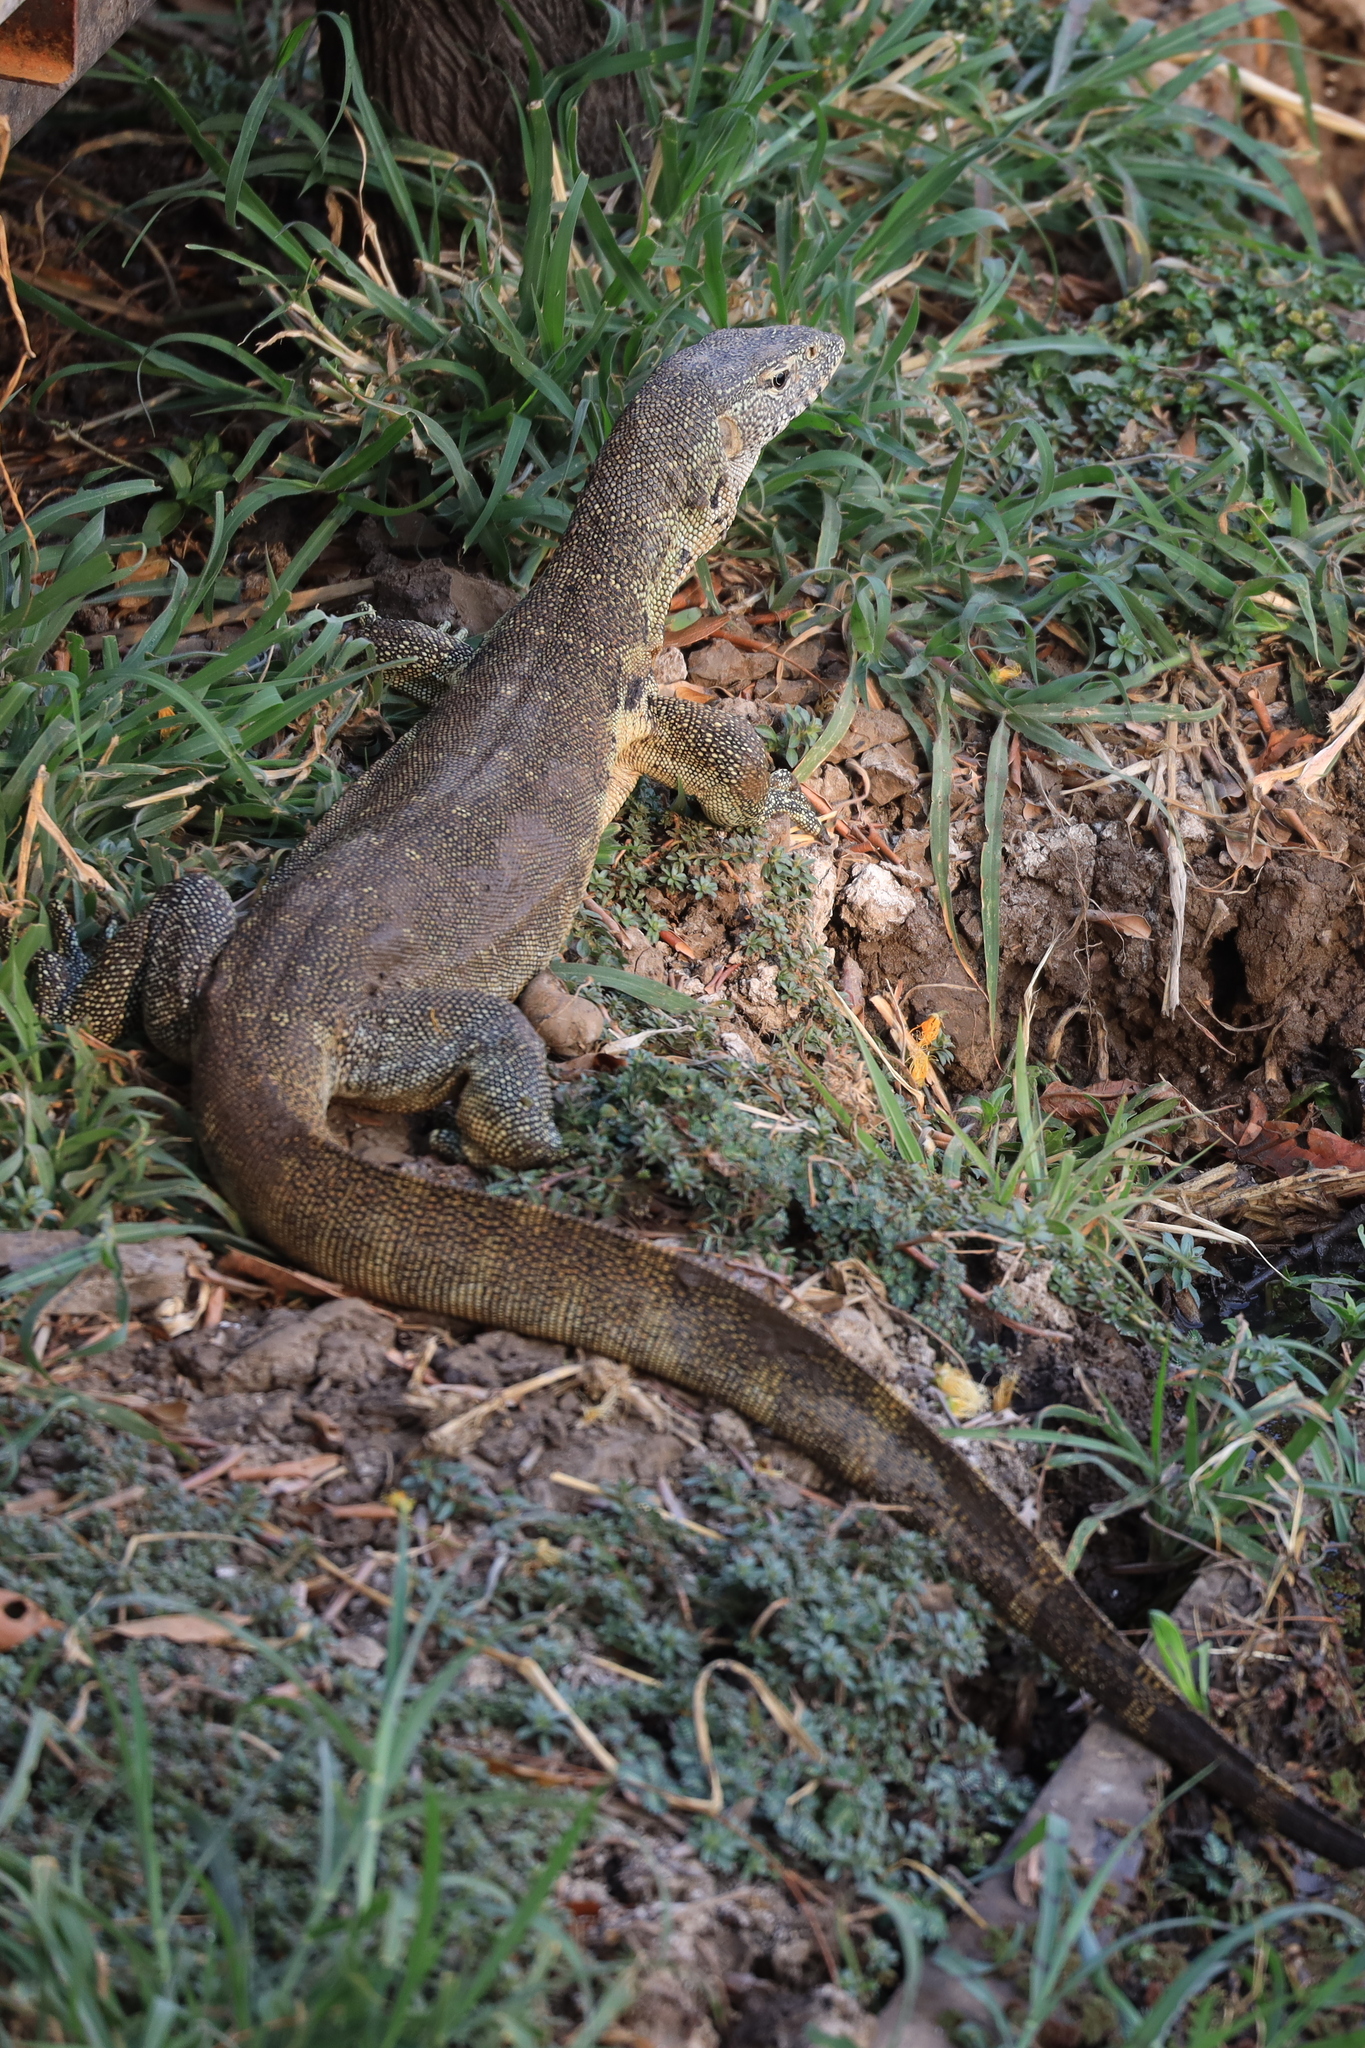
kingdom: Animalia
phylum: Chordata
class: Squamata
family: Varanidae
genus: Varanus
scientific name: Varanus niloticus
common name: Nile monitor
